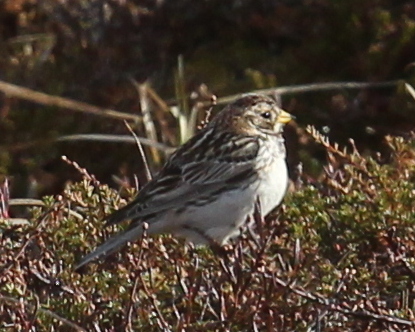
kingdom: Animalia
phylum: Chordata
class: Aves
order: Passeriformes
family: Calcariidae
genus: Calcarius
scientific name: Calcarius lapponicus
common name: Lapland longspur
